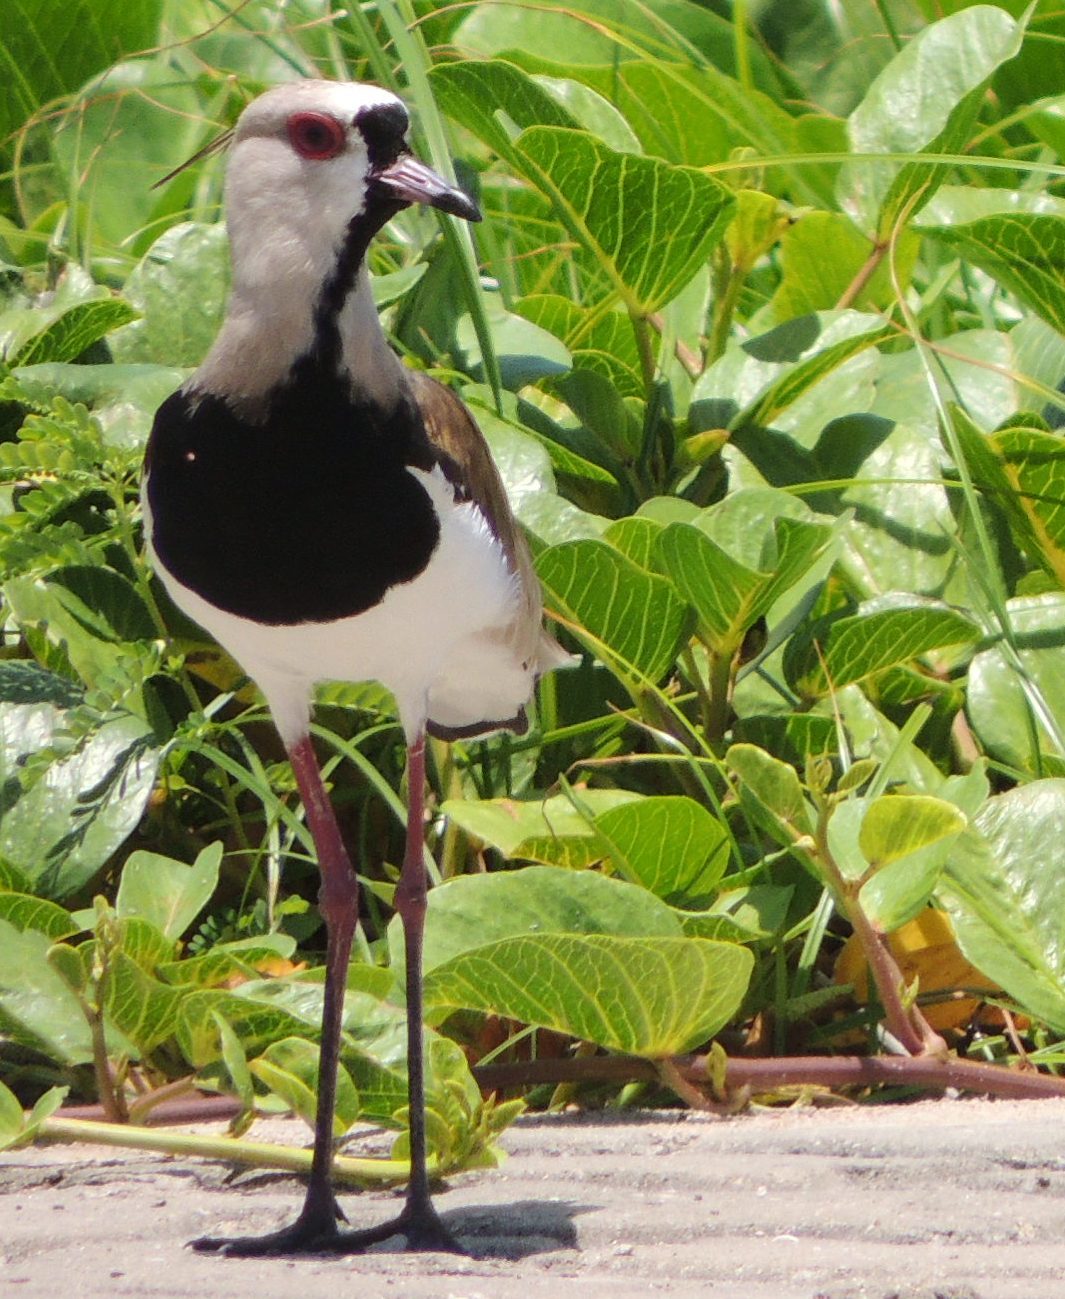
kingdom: Animalia
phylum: Chordata
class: Aves
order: Charadriiformes
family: Charadriidae
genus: Vanellus
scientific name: Vanellus chilensis
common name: Southern lapwing
